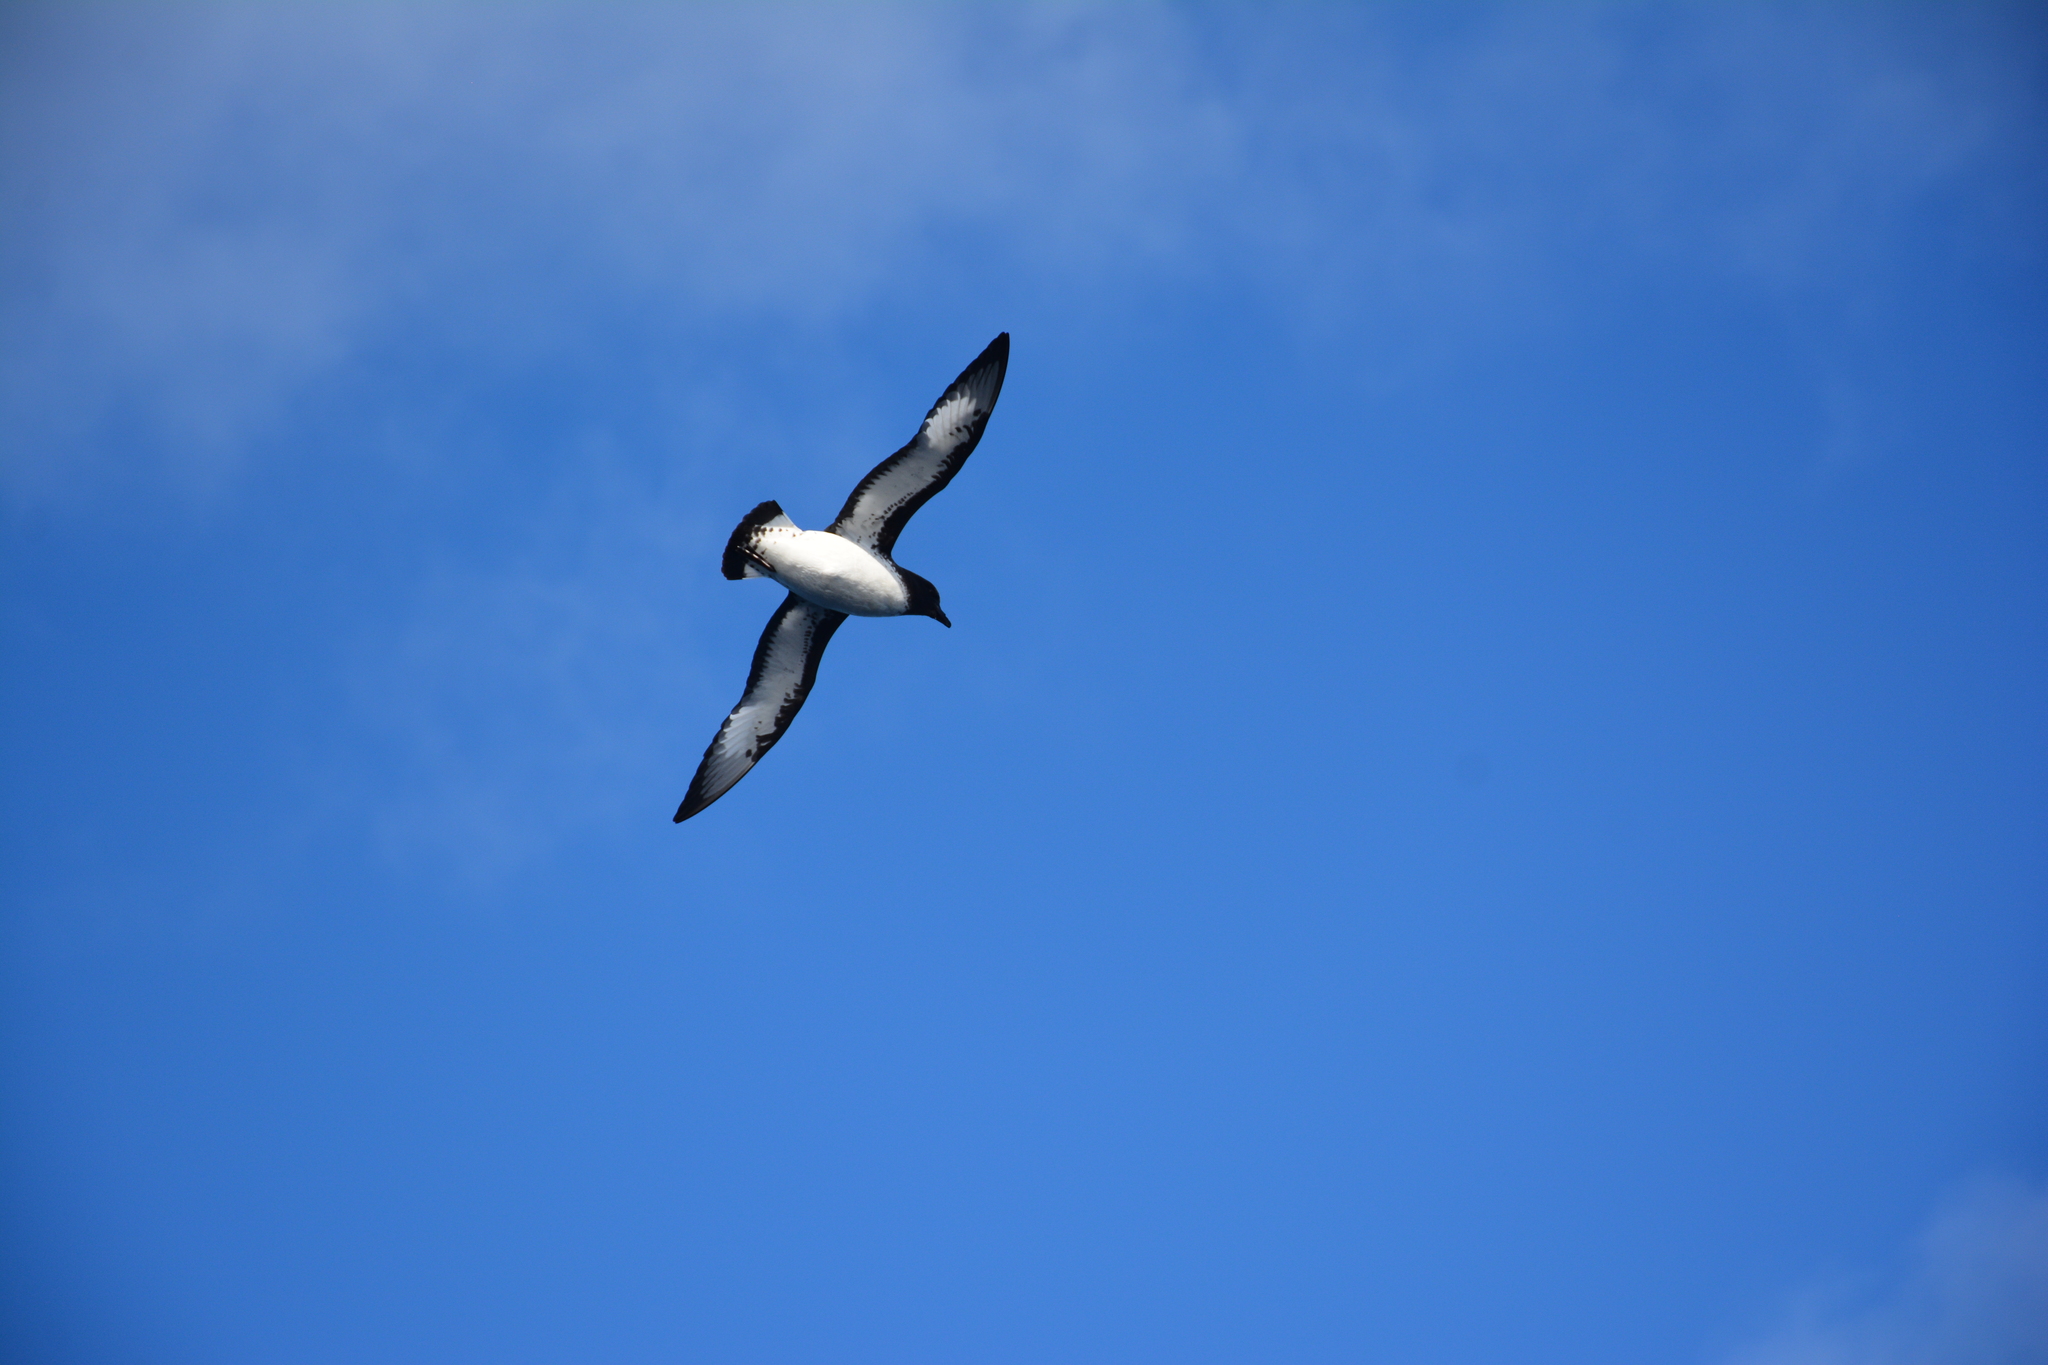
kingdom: Animalia
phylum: Chordata
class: Aves
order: Procellariiformes
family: Procellariidae
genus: Daption
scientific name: Daption capense
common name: Cape petrel
